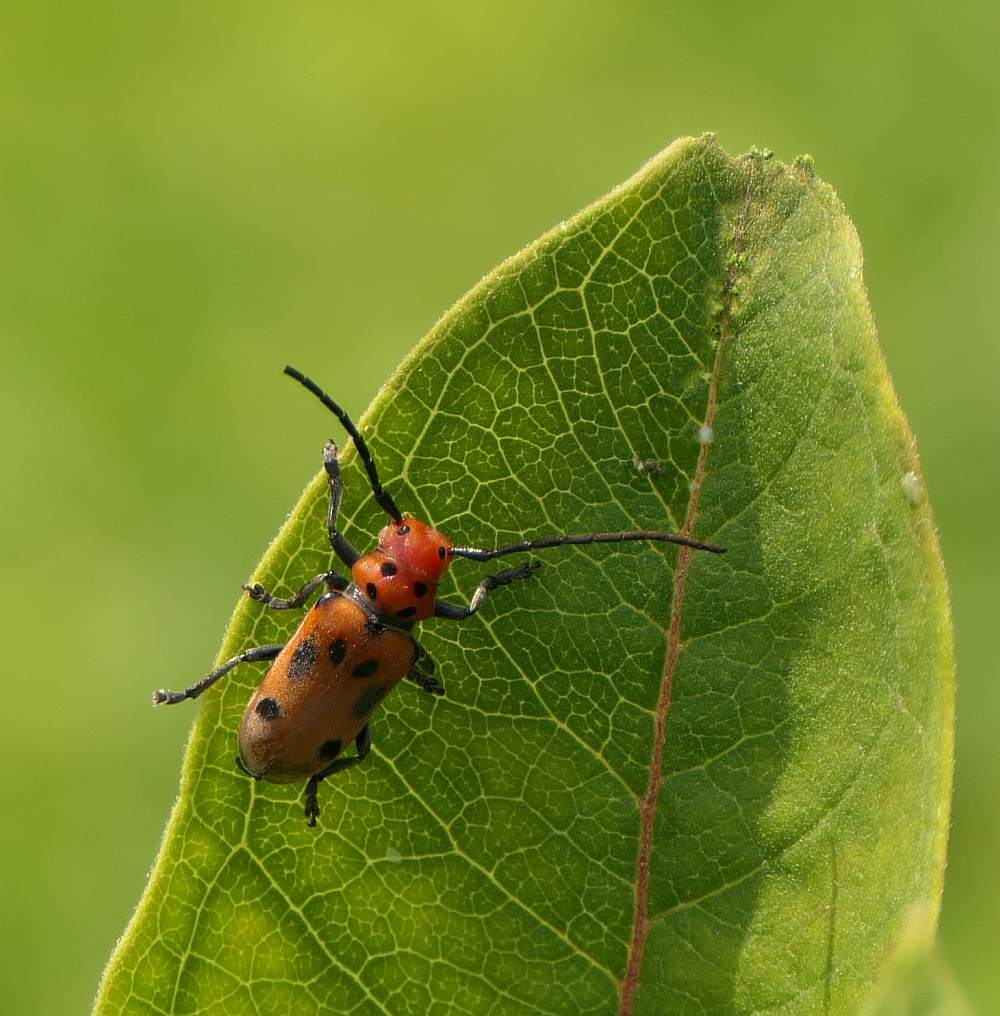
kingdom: Animalia
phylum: Arthropoda
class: Insecta
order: Coleoptera
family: Cerambycidae
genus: Tetraopes
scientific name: Tetraopes tetrophthalmus
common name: Red milkweed beetle
